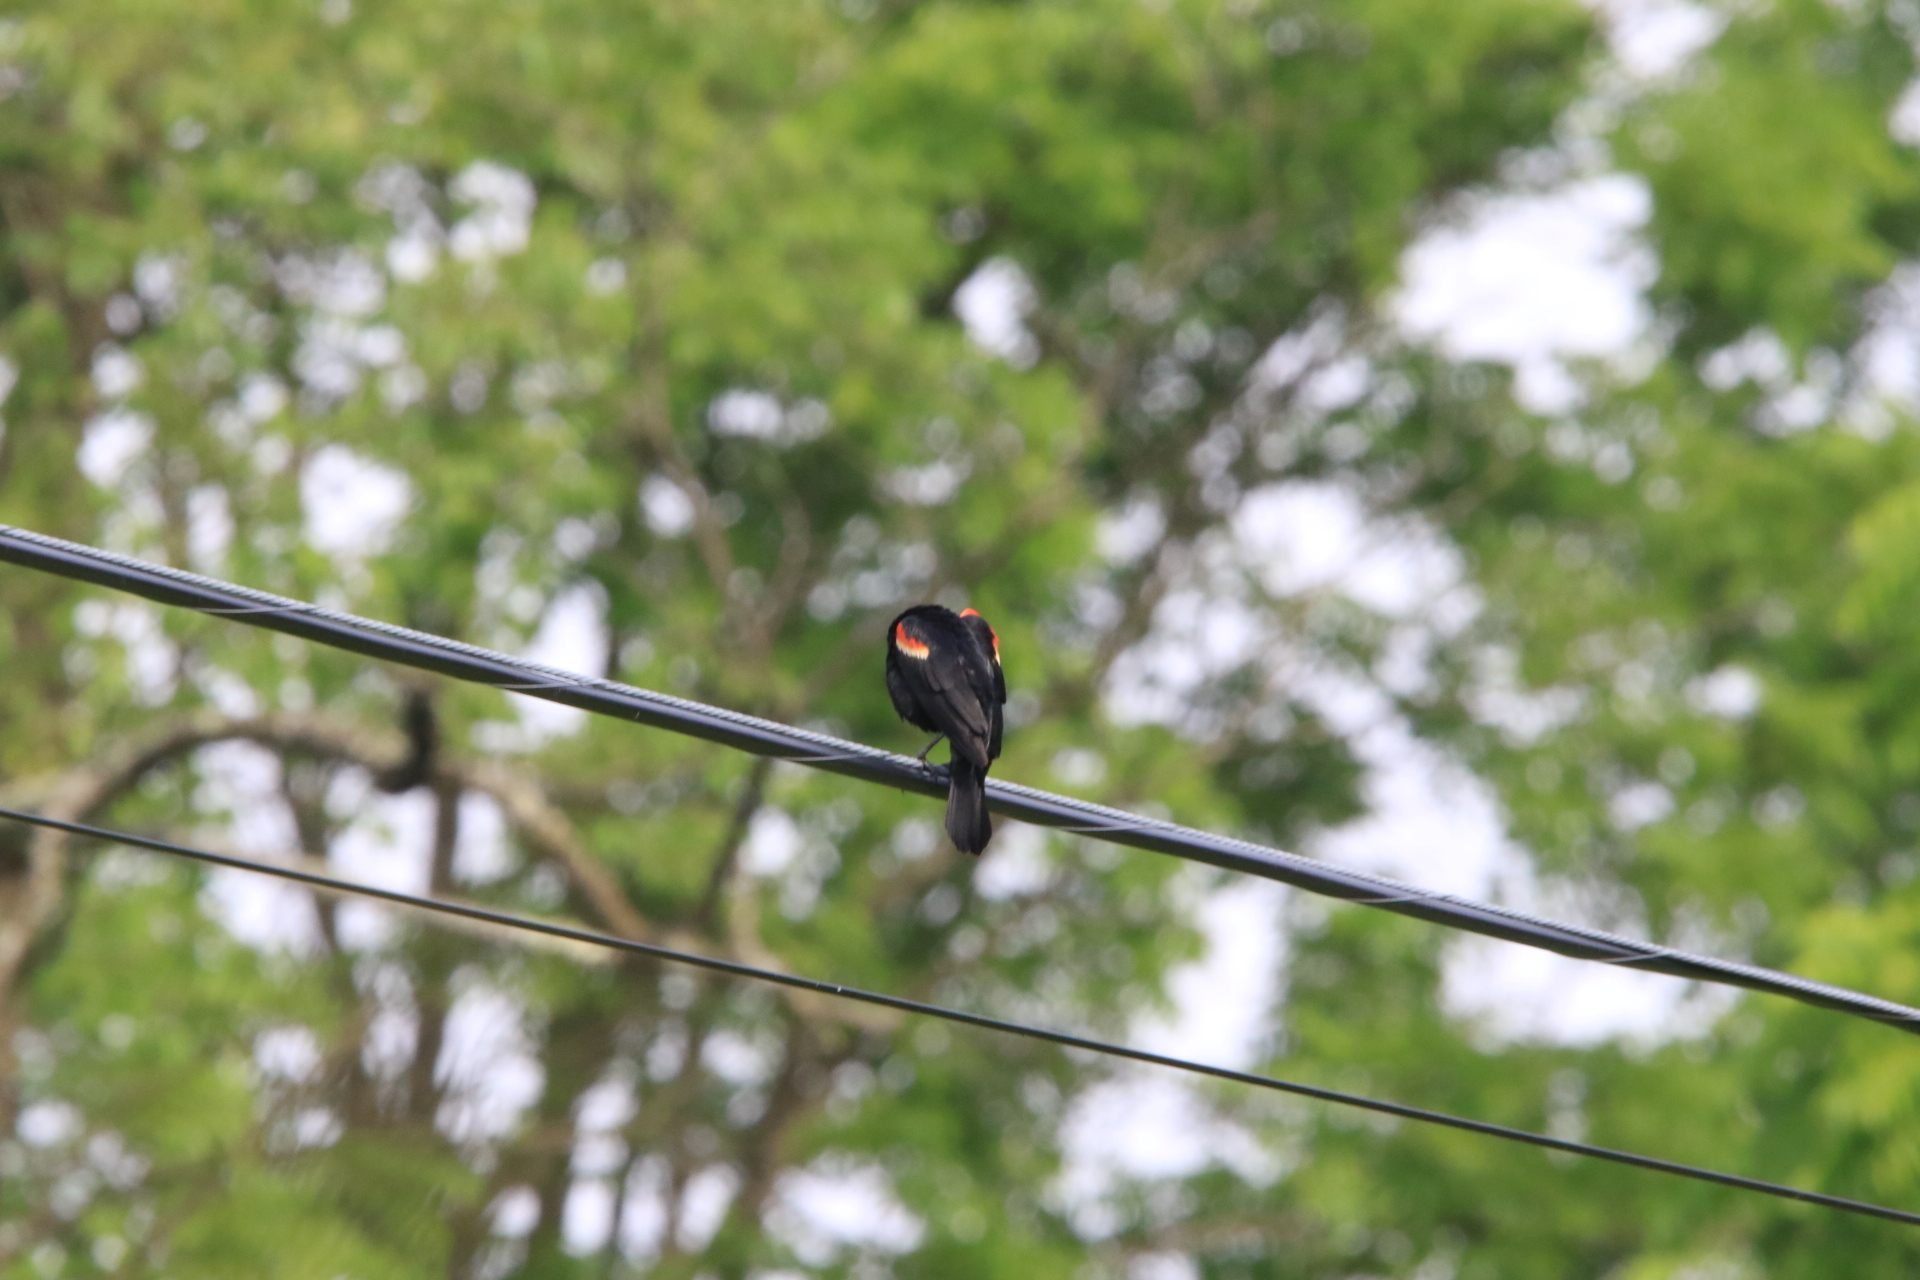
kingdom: Animalia
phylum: Chordata
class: Aves
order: Passeriformes
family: Icteridae
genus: Agelaius
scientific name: Agelaius phoeniceus
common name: Red-winged blackbird
